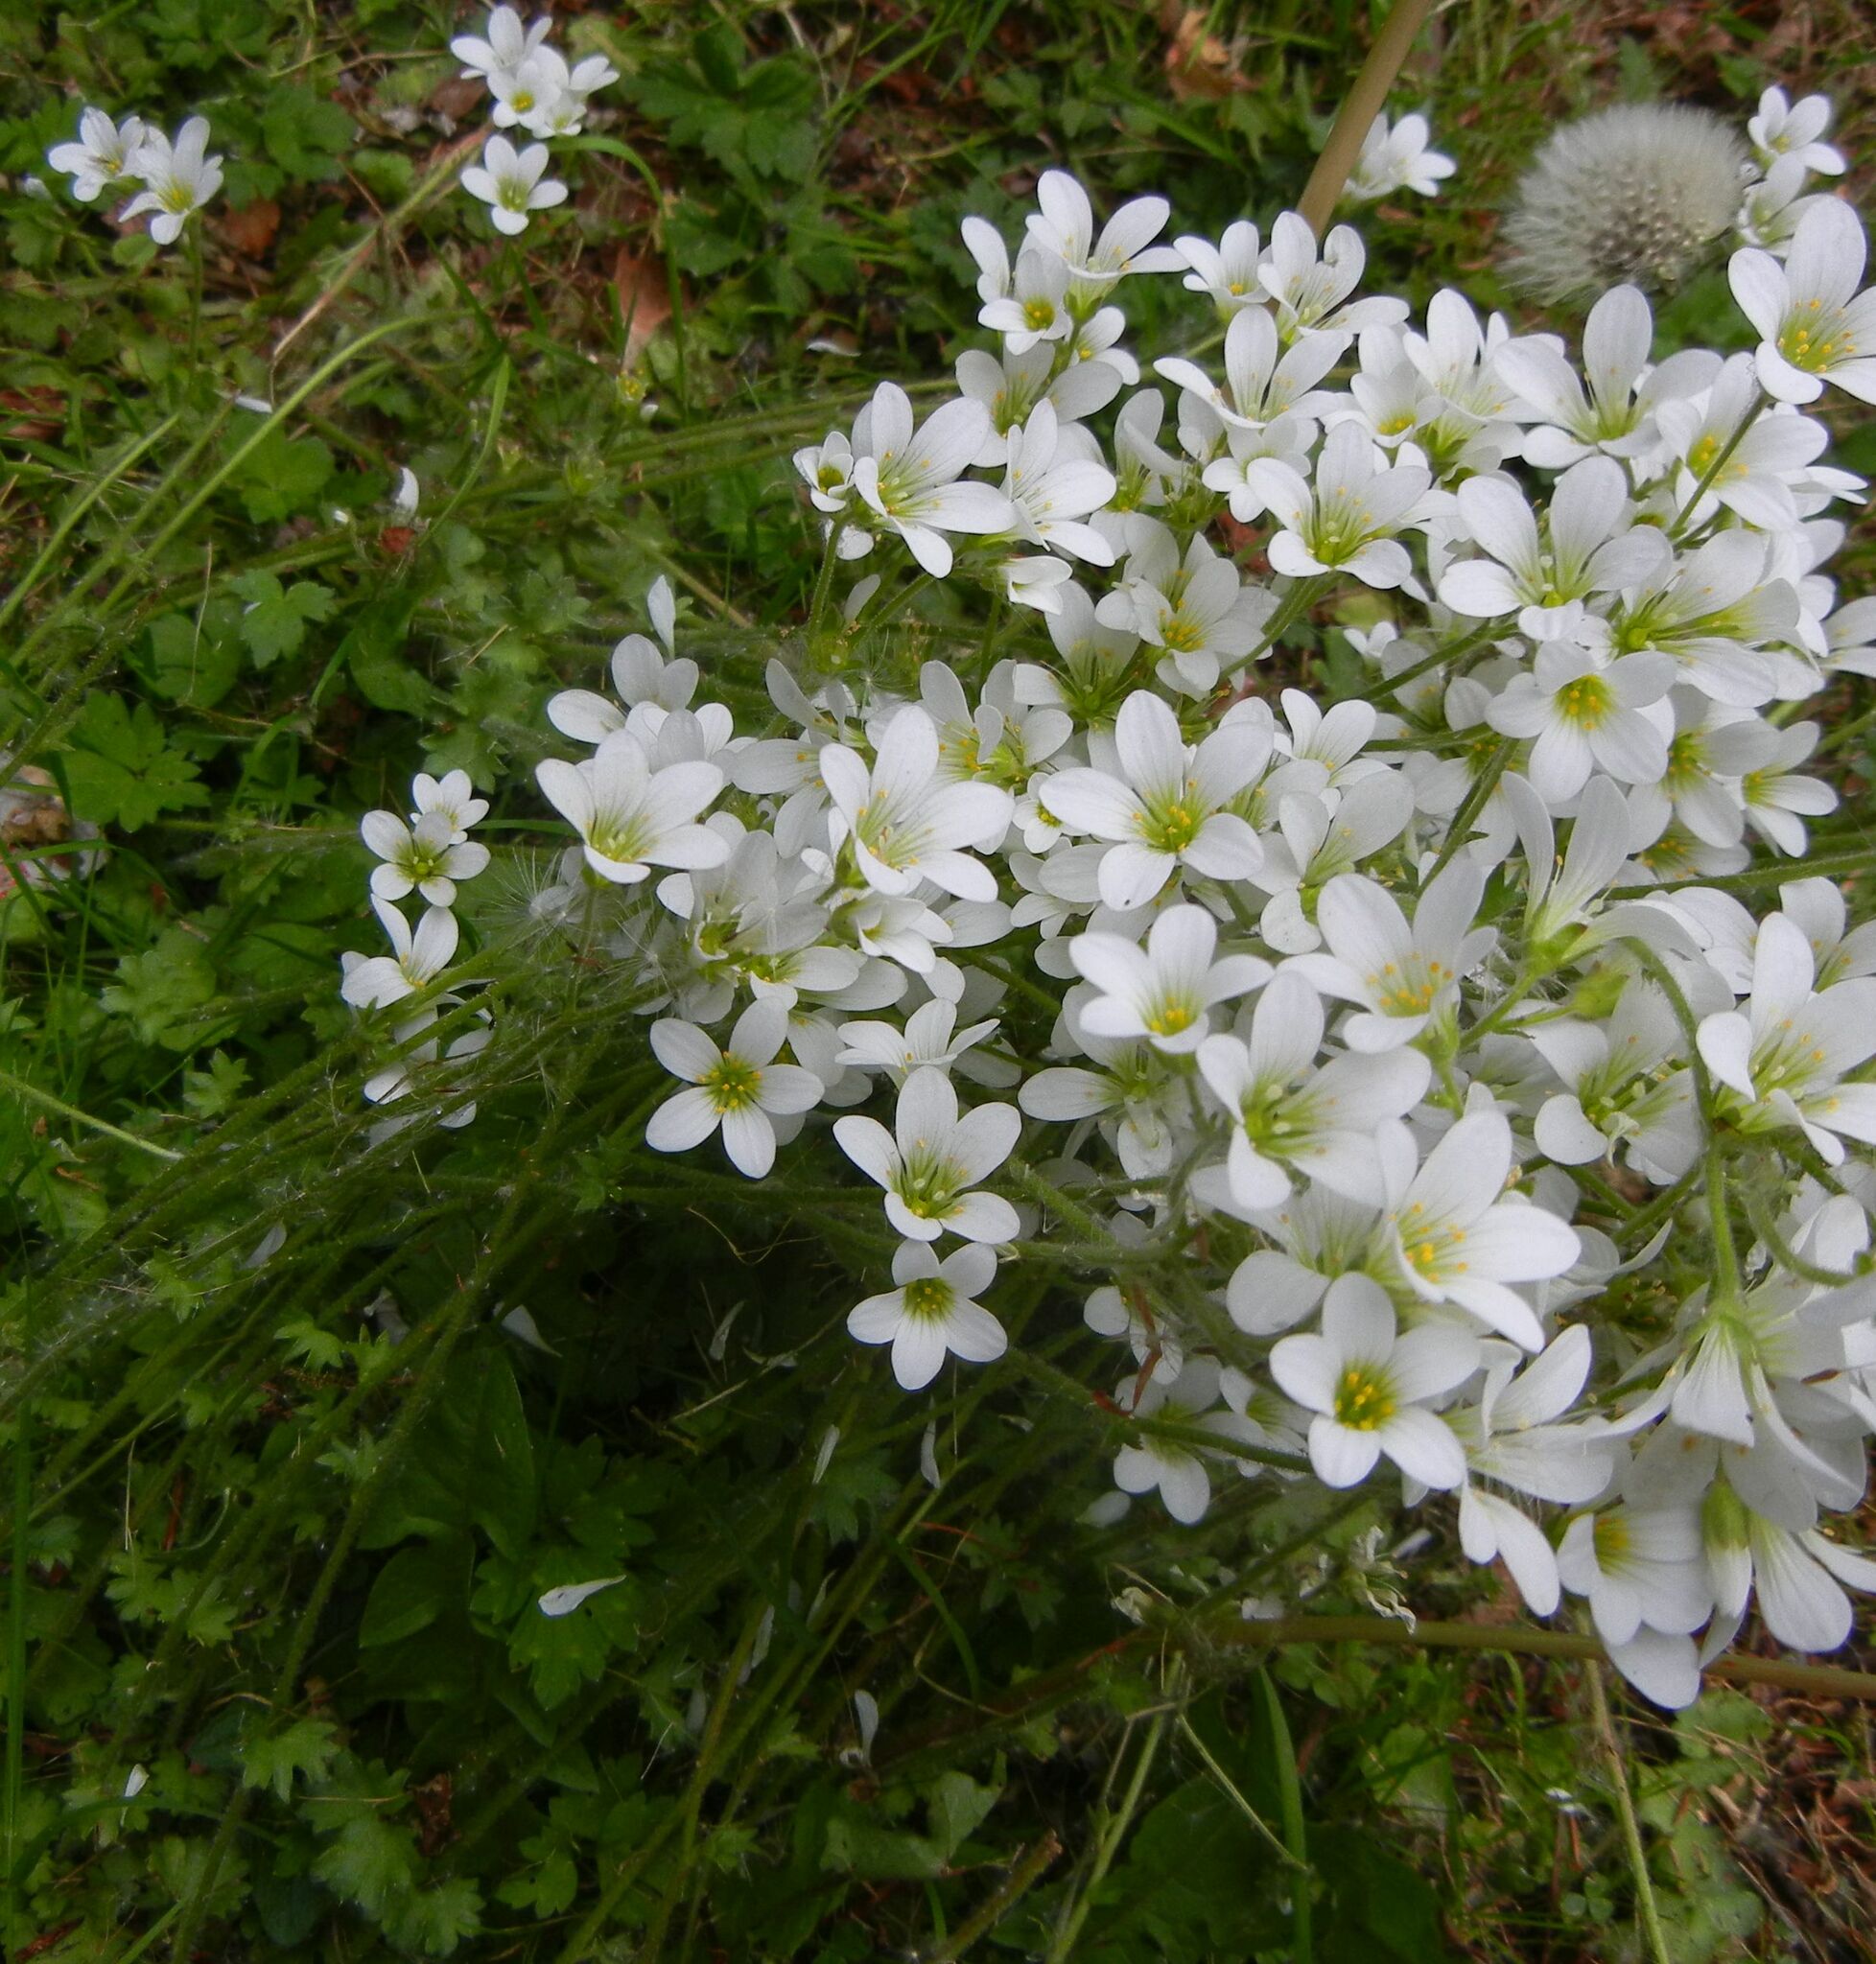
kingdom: Plantae
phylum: Tracheophyta
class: Magnoliopsida
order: Saxifragales
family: Saxifragaceae
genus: Saxifraga
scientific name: Saxifraga granulata
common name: Meadow saxifrage
